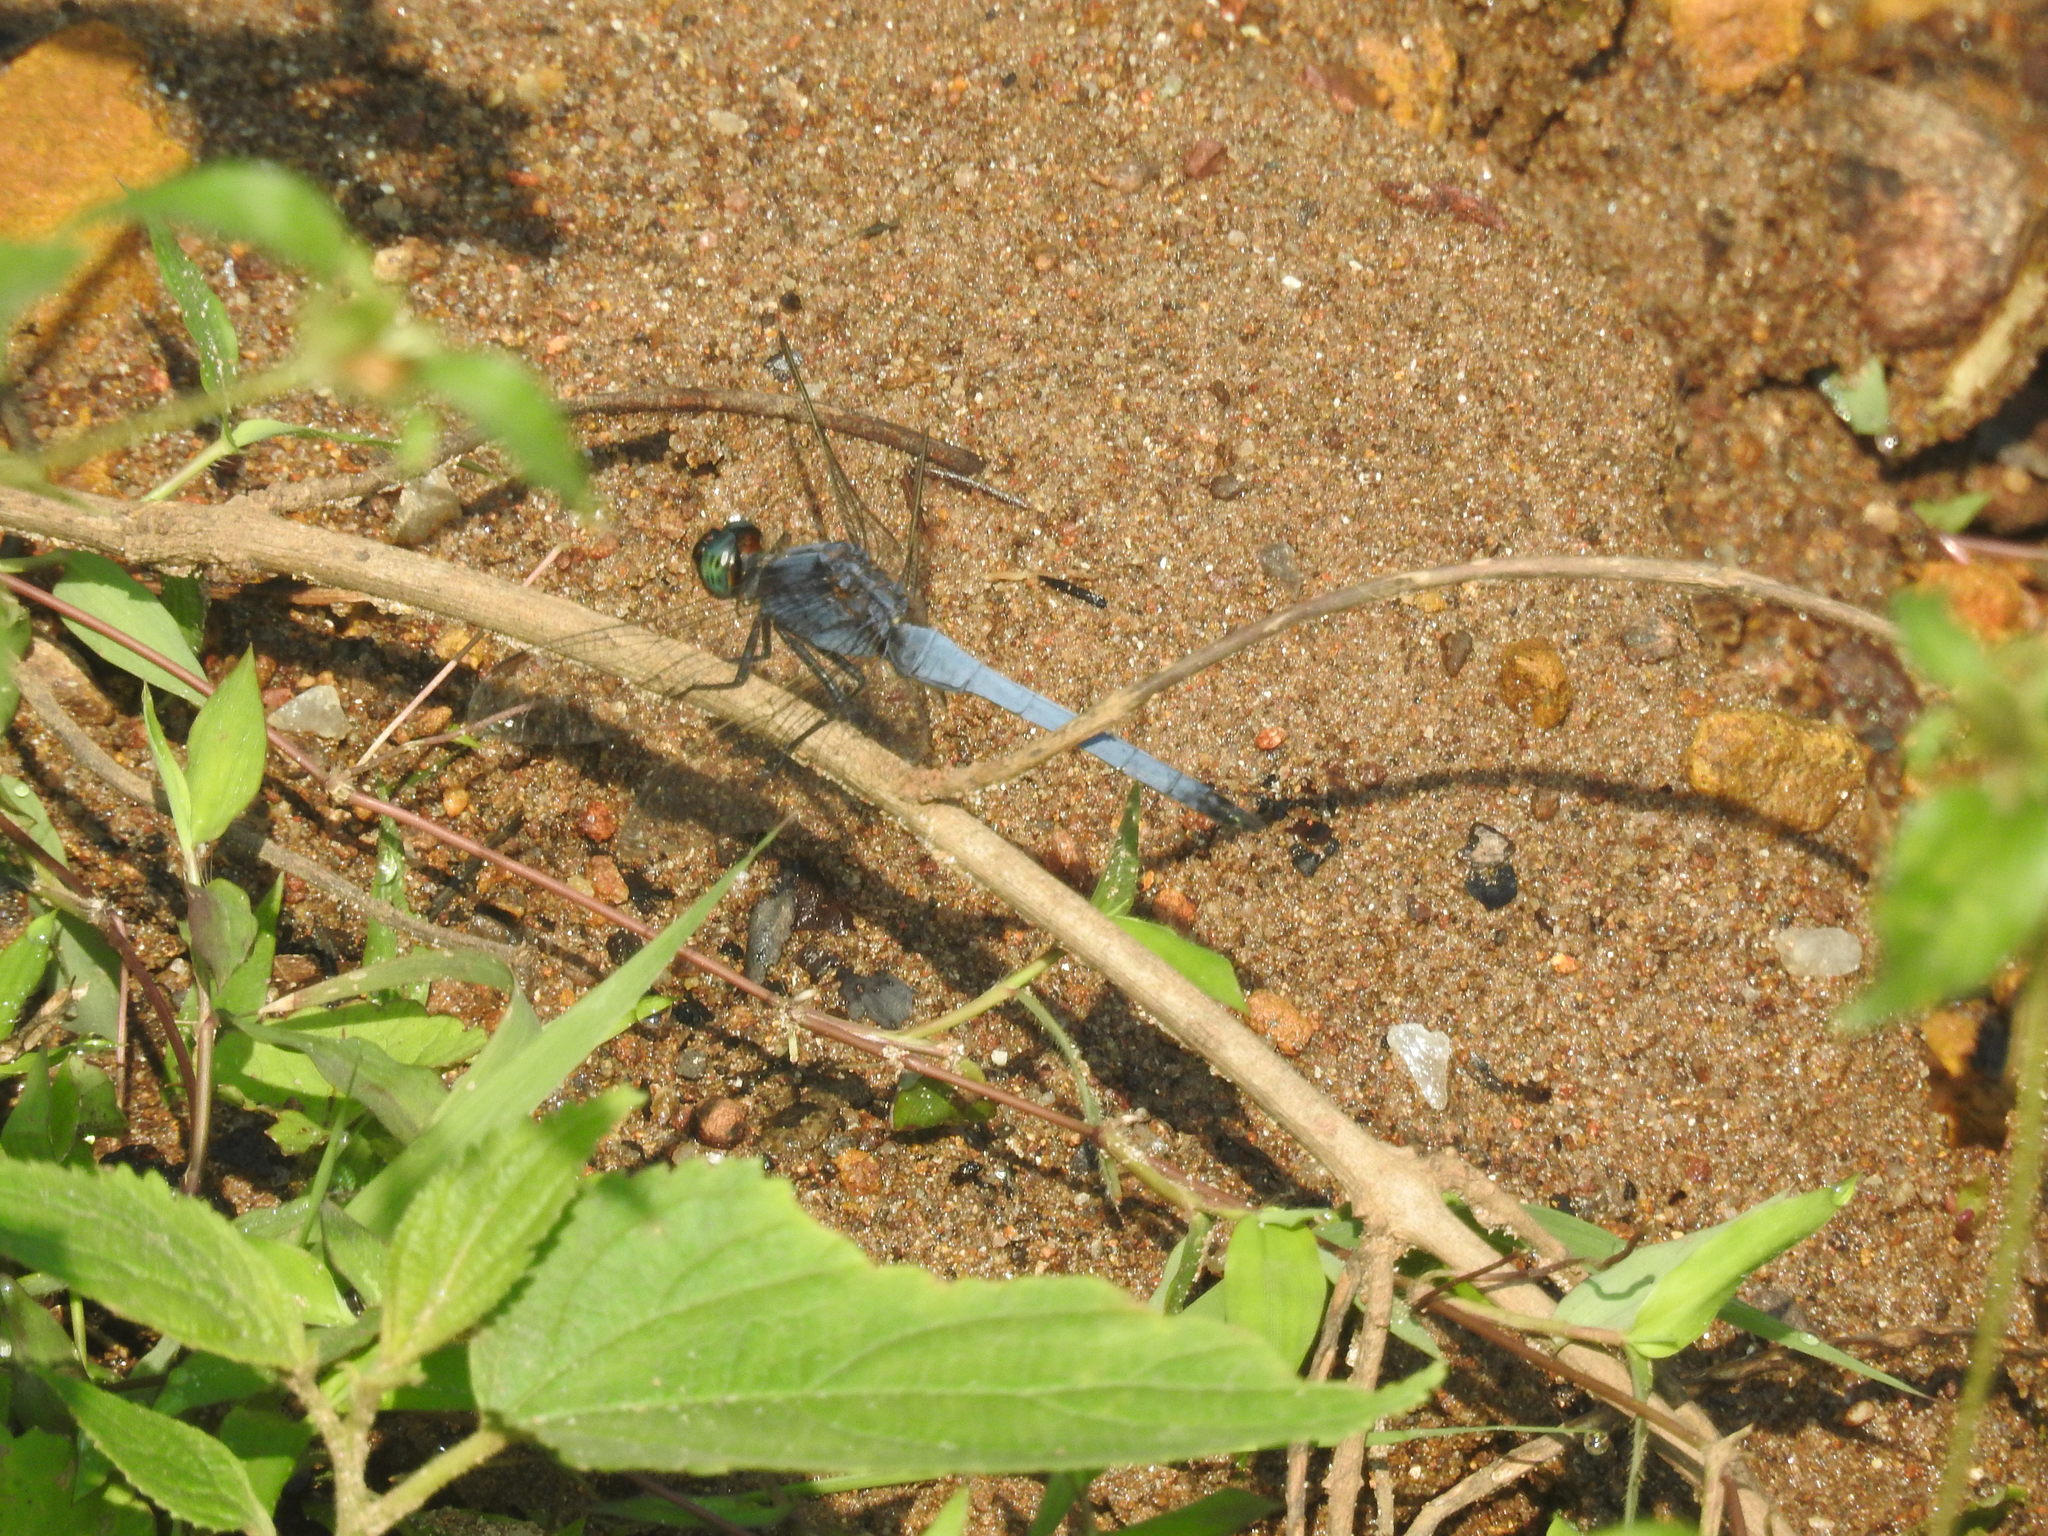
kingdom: Animalia
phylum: Arthropoda
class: Insecta
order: Odonata
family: Libellulidae
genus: Orthetrum
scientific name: Orthetrum glaucum
